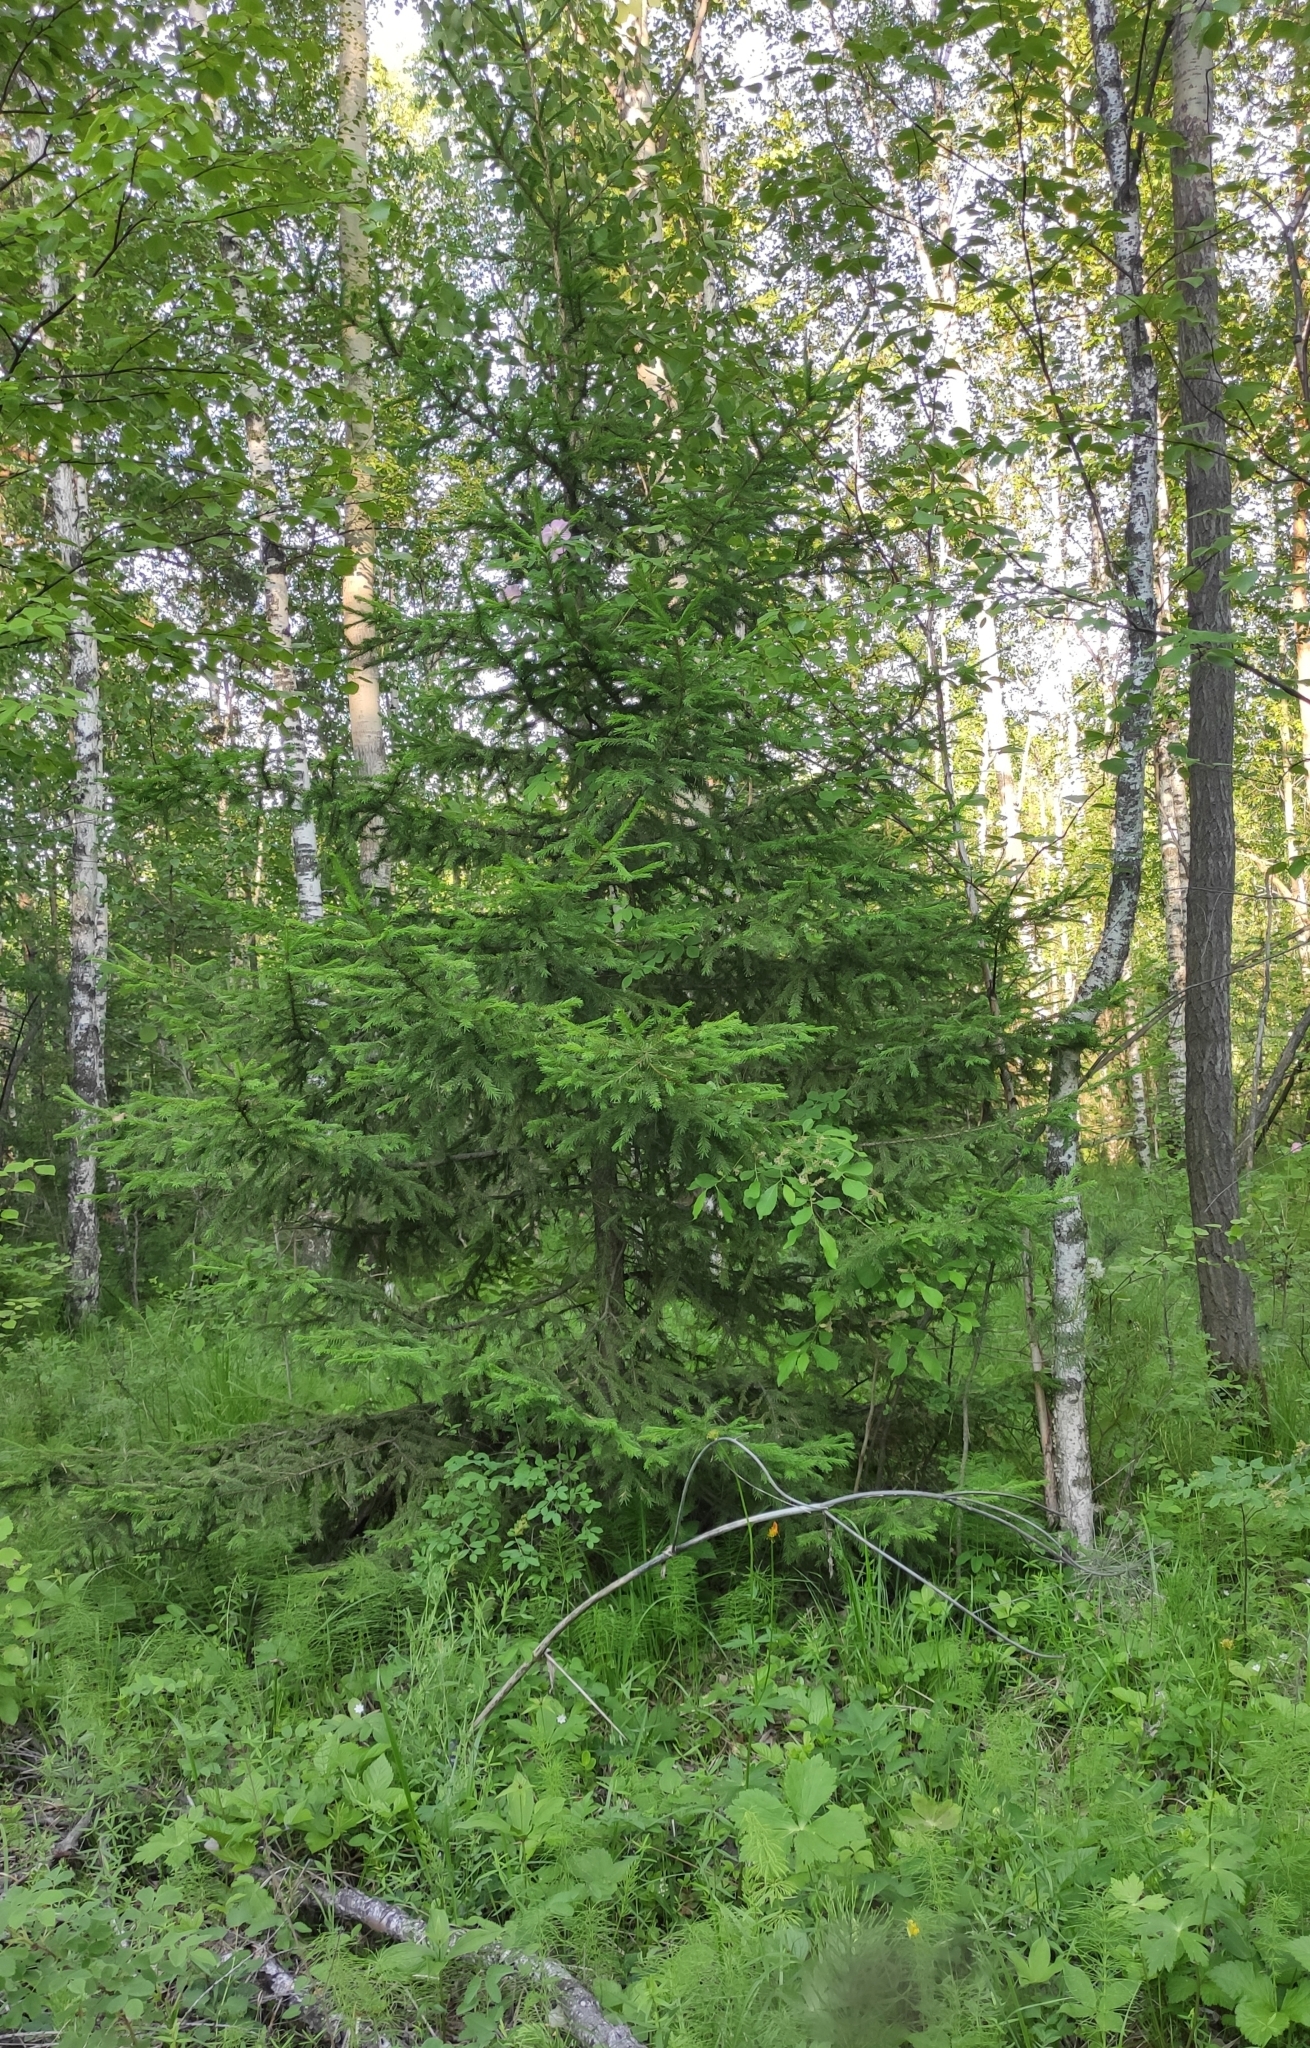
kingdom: Plantae
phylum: Tracheophyta
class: Pinopsida
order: Pinales
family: Pinaceae
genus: Picea
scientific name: Picea obovata
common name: Siberian spruce
